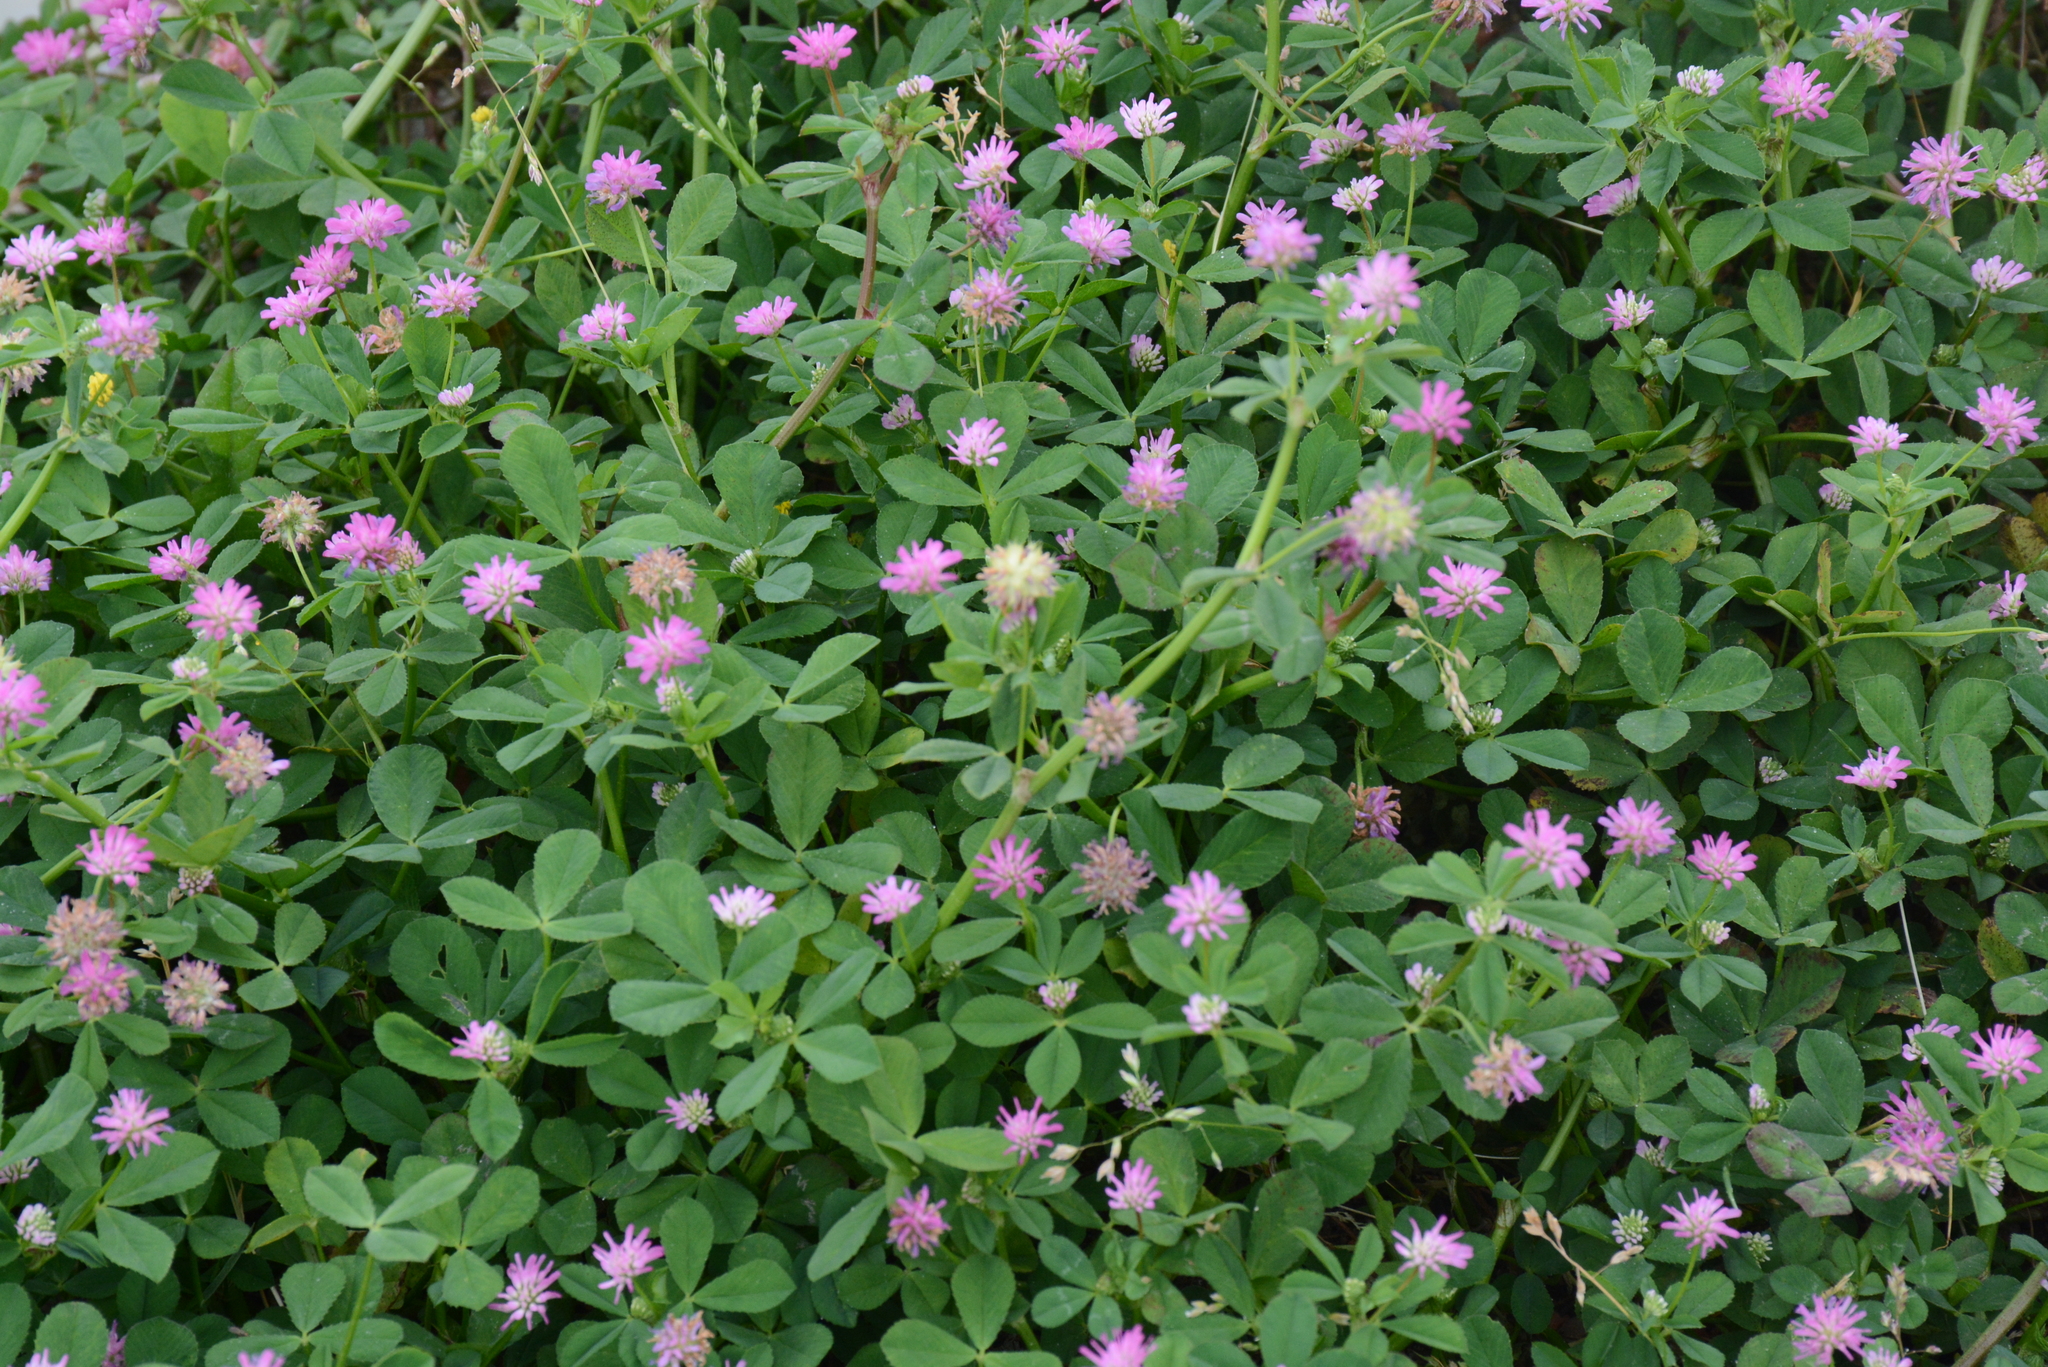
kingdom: Plantae
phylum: Tracheophyta
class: Magnoliopsida
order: Fabales
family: Fabaceae
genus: Trifolium
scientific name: Trifolium resupinatum
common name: Reversed clover
